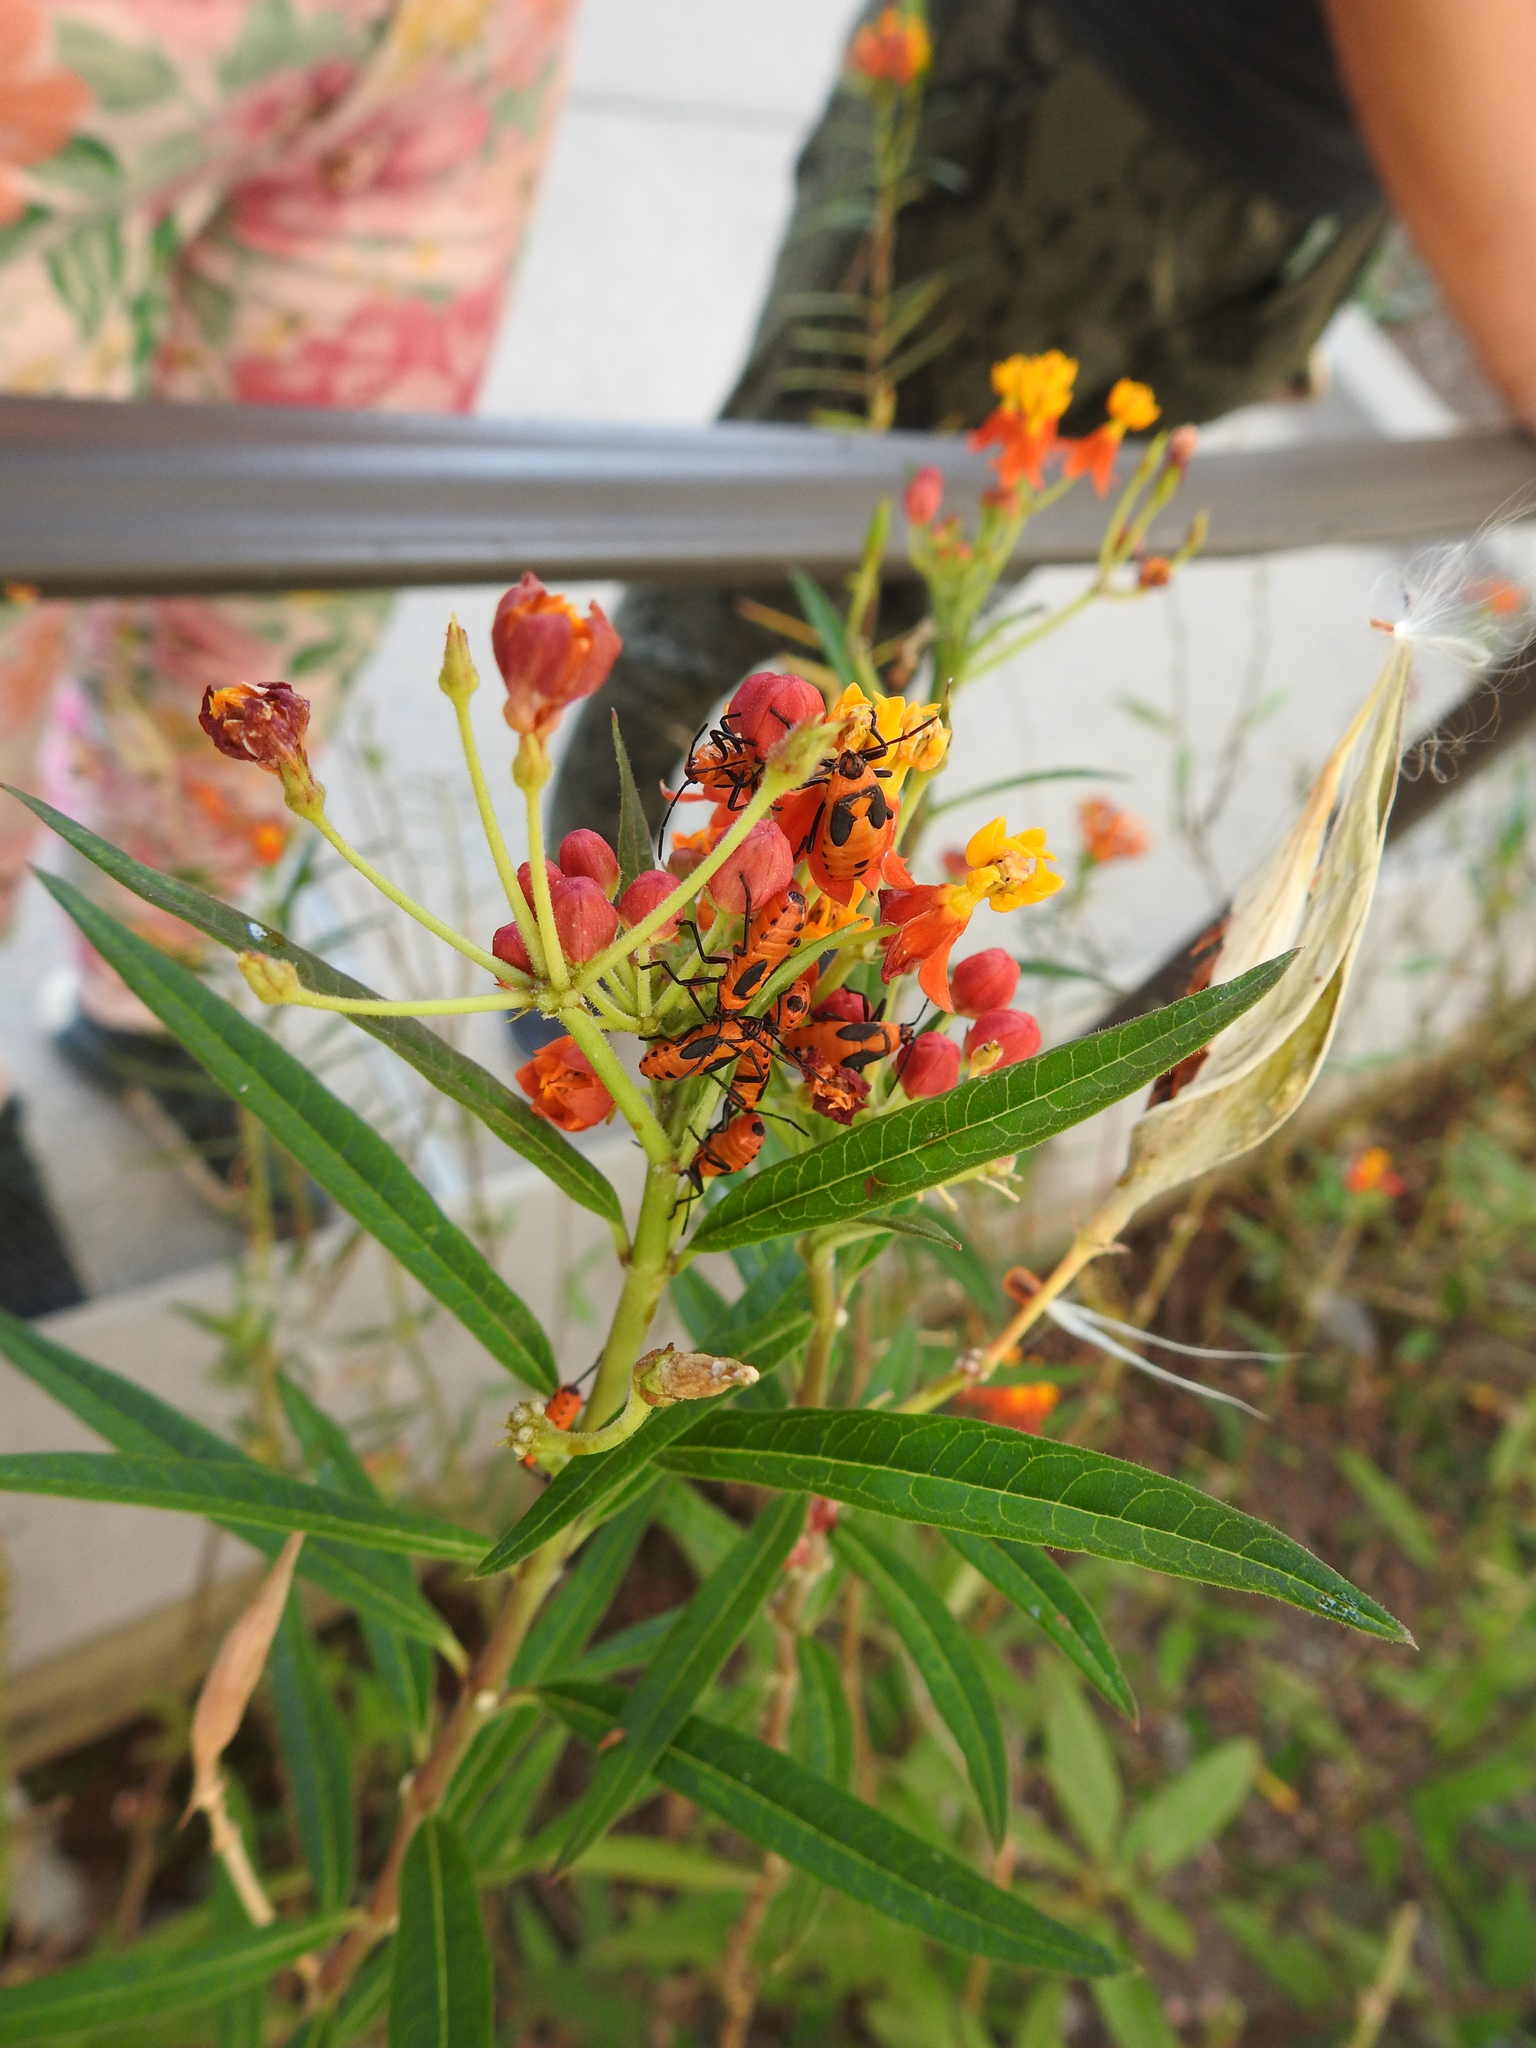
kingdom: Animalia
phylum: Arthropoda
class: Insecta
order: Hemiptera
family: Lygaeidae
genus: Oncopeltus
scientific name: Oncopeltus fasciatus
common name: Large milkweed bug
